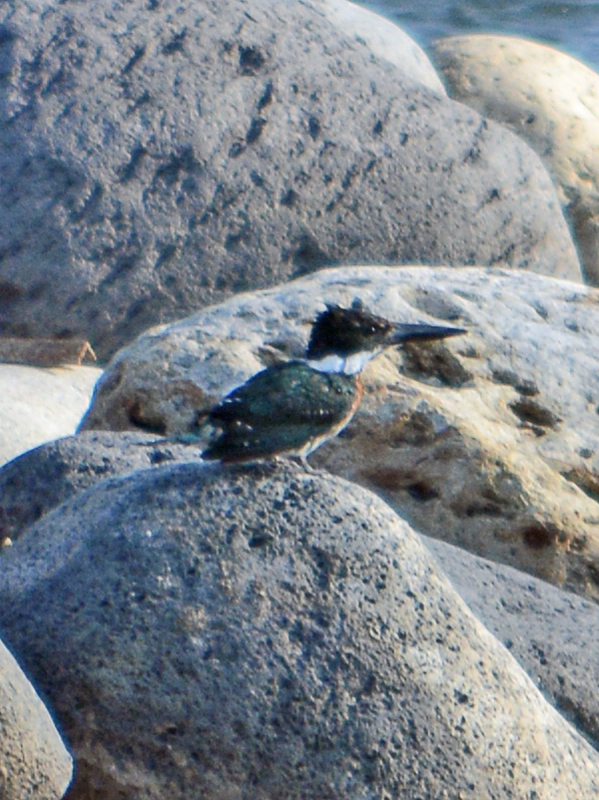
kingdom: Animalia
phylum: Chordata
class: Aves
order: Coraciiformes
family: Alcedinidae
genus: Chloroceryle
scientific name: Chloroceryle americana
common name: Green kingfisher
